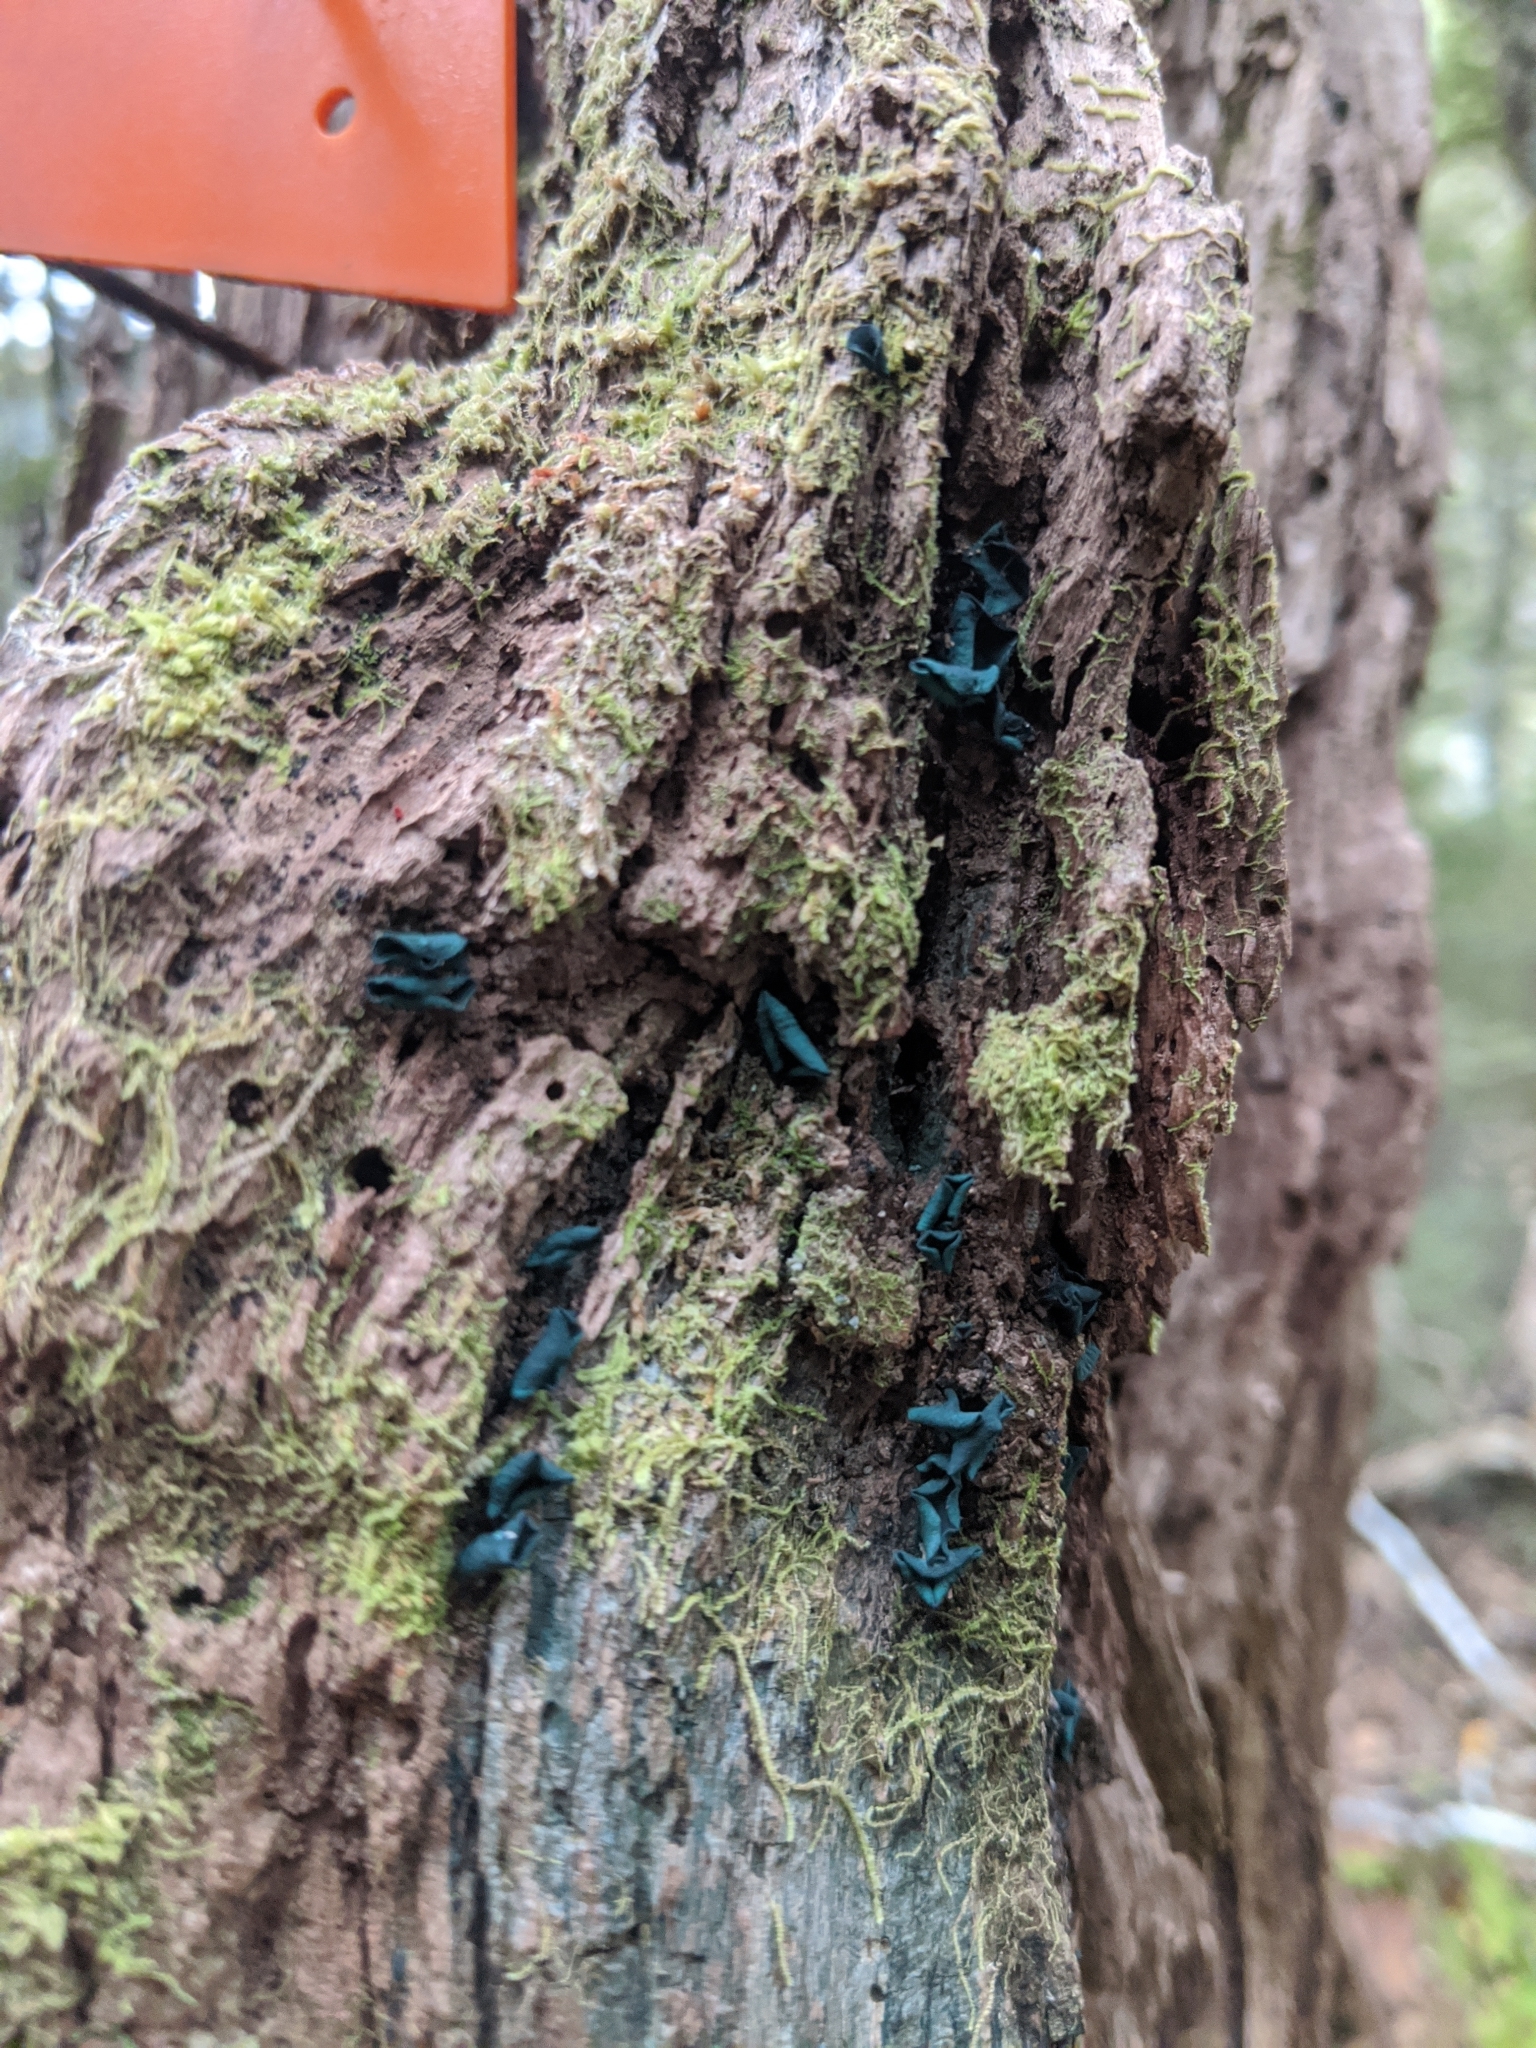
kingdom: Fungi
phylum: Ascomycota
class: Leotiomycetes
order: Helotiales
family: Chlorociboriaceae
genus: Chlorociboria
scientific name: Chlorociboria
